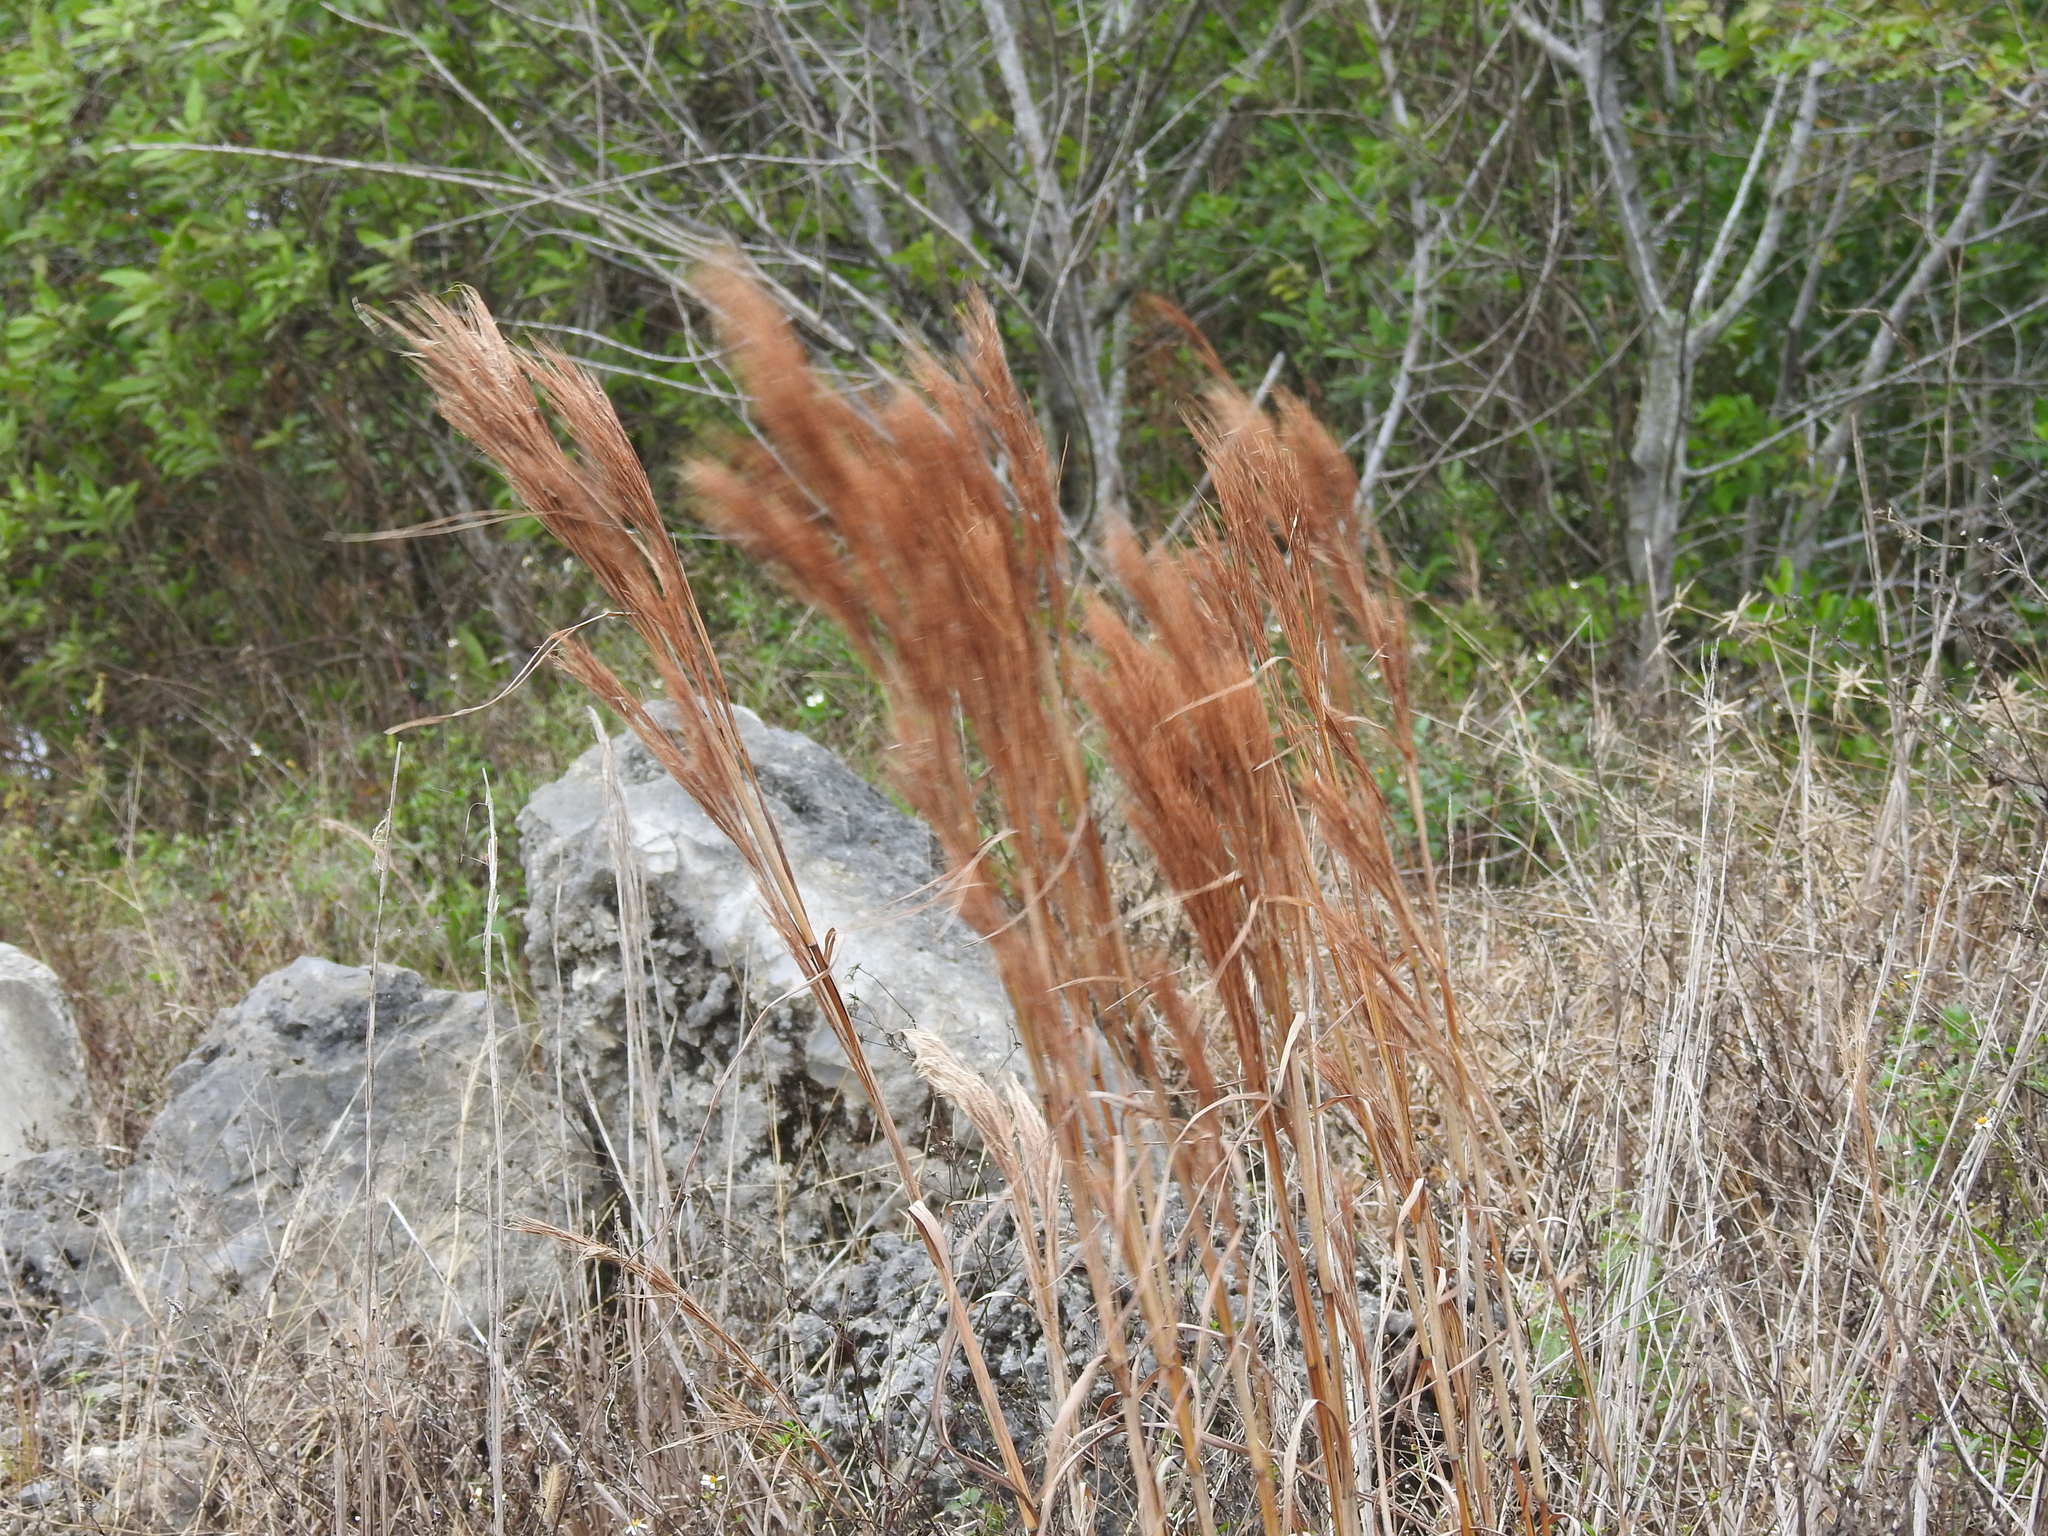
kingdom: Plantae
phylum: Tracheophyta
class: Liliopsida
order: Poales
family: Poaceae
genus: Andropogon
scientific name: Andropogon tenuispatheus
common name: Bushy bluestem
